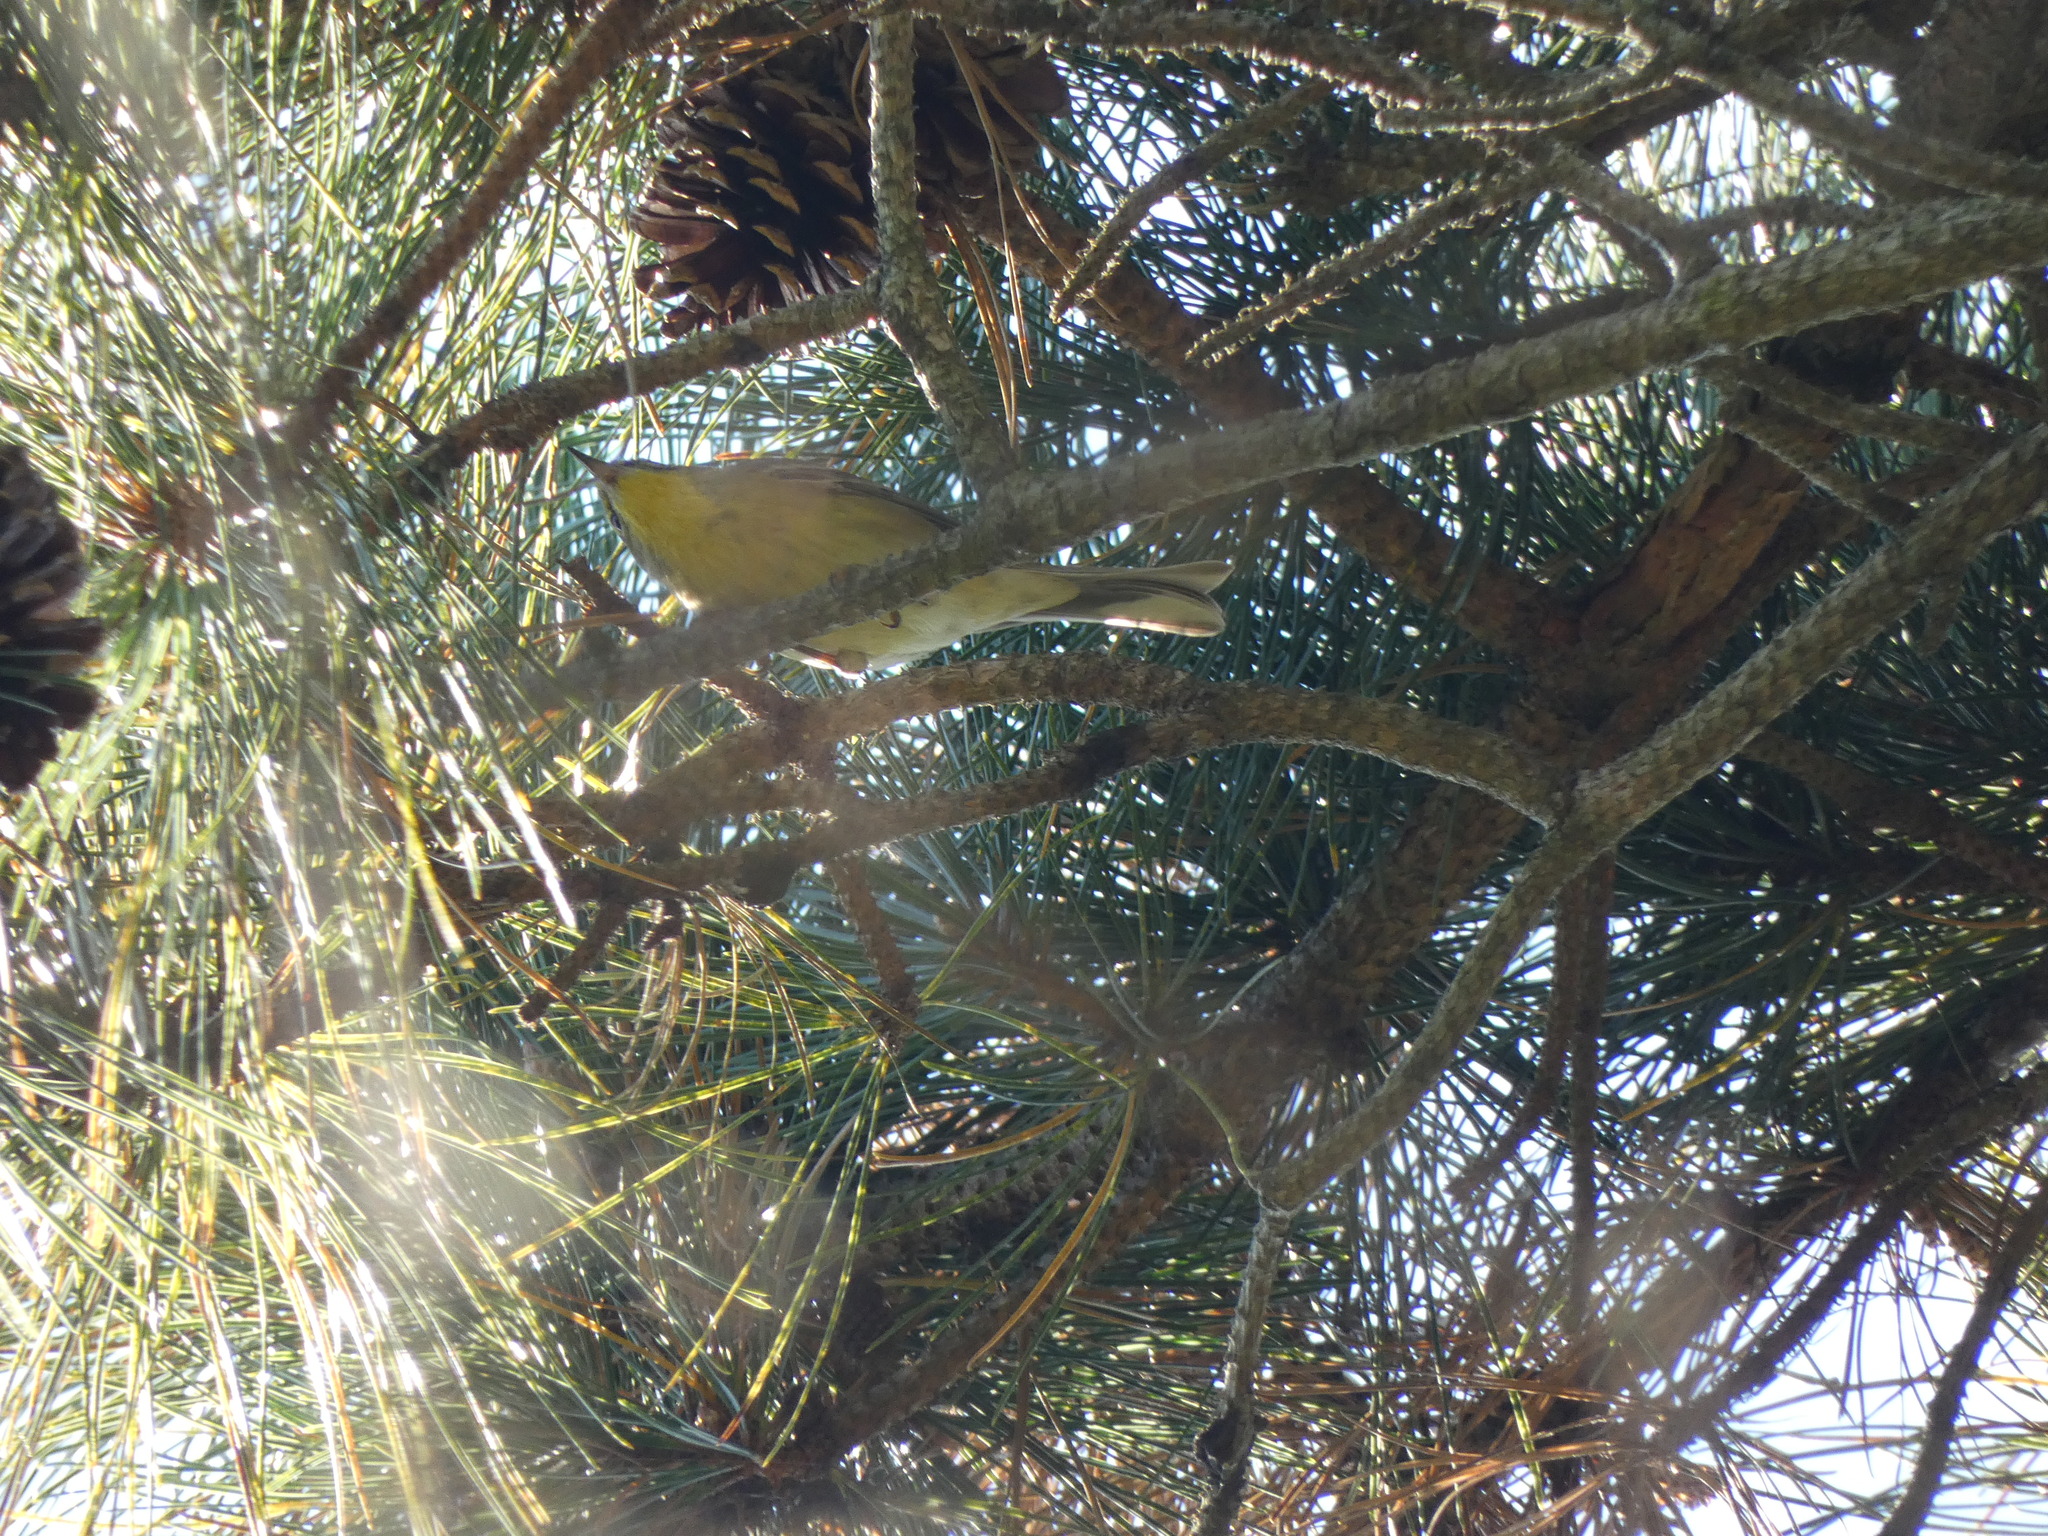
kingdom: Animalia
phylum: Chordata
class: Aves
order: Passeriformes
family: Parulidae
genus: Setophaga
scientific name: Setophaga pinus
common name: Pine warbler
